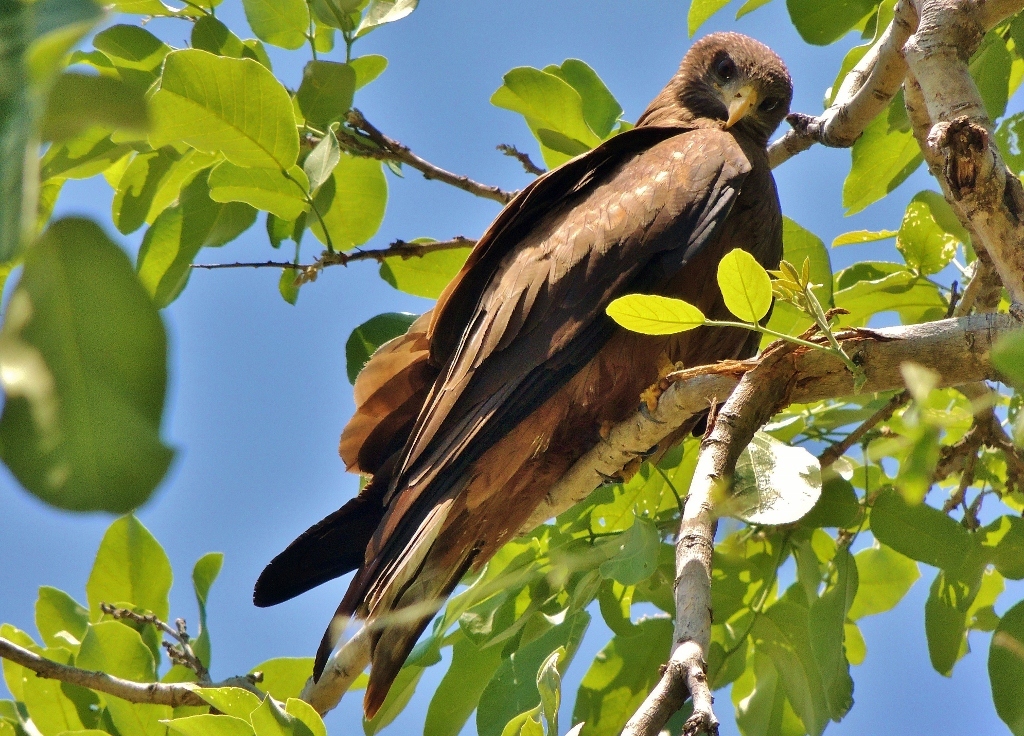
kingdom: Animalia
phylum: Chordata
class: Aves
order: Accipitriformes
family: Accipitridae
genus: Milvus
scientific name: Milvus migrans
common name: Black kite
